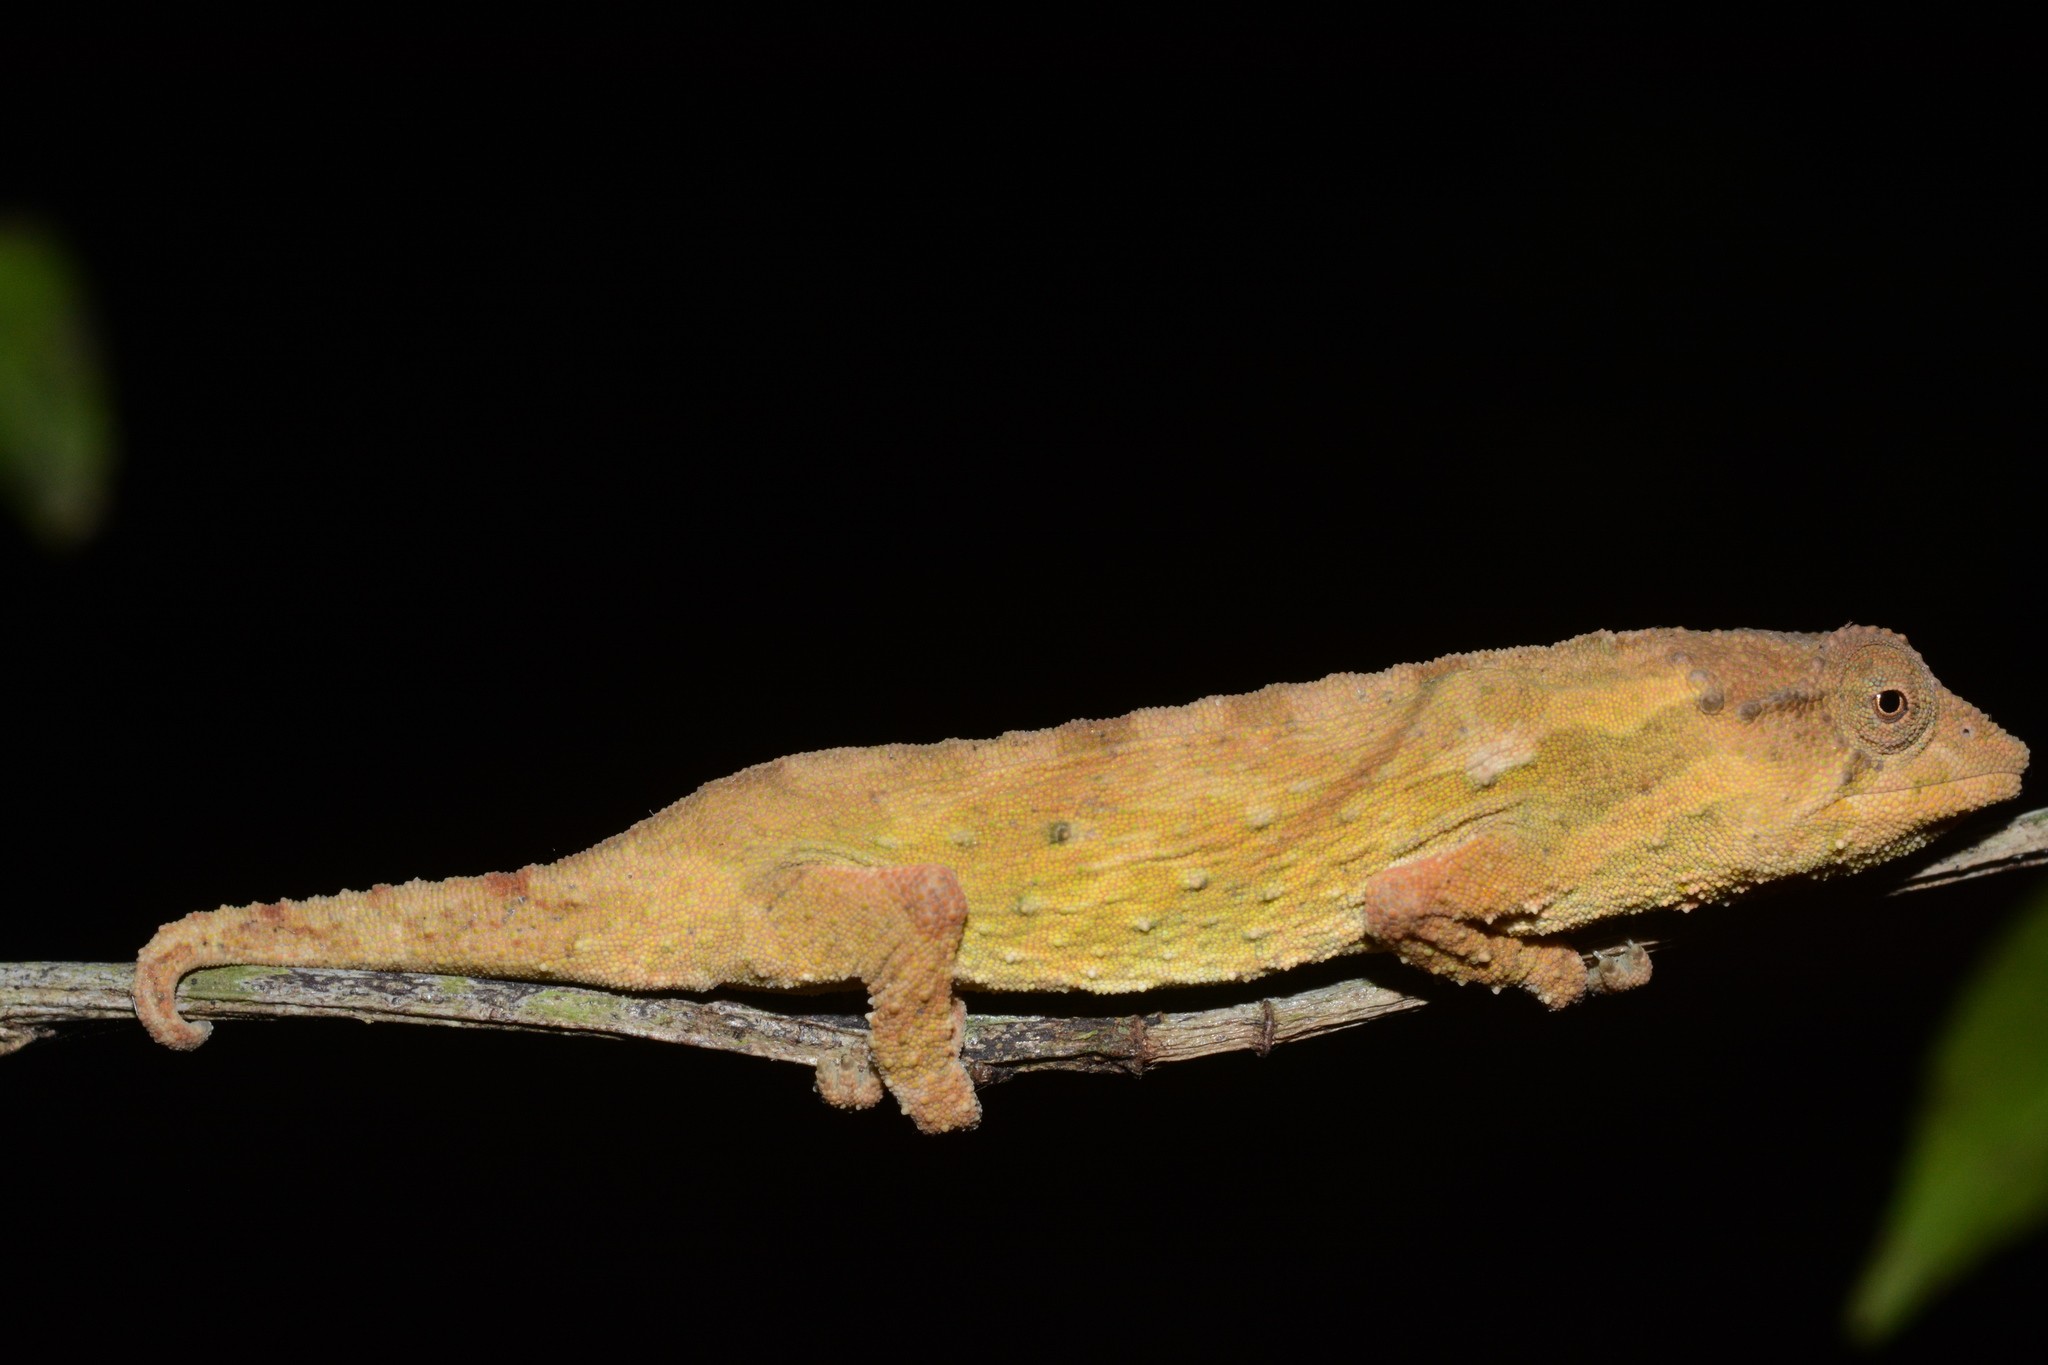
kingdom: Animalia
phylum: Chordata
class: Squamata
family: Chamaeleonidae
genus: Rhampholeon
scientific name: Rhampholeon viridis
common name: Green pygmy chameleon
